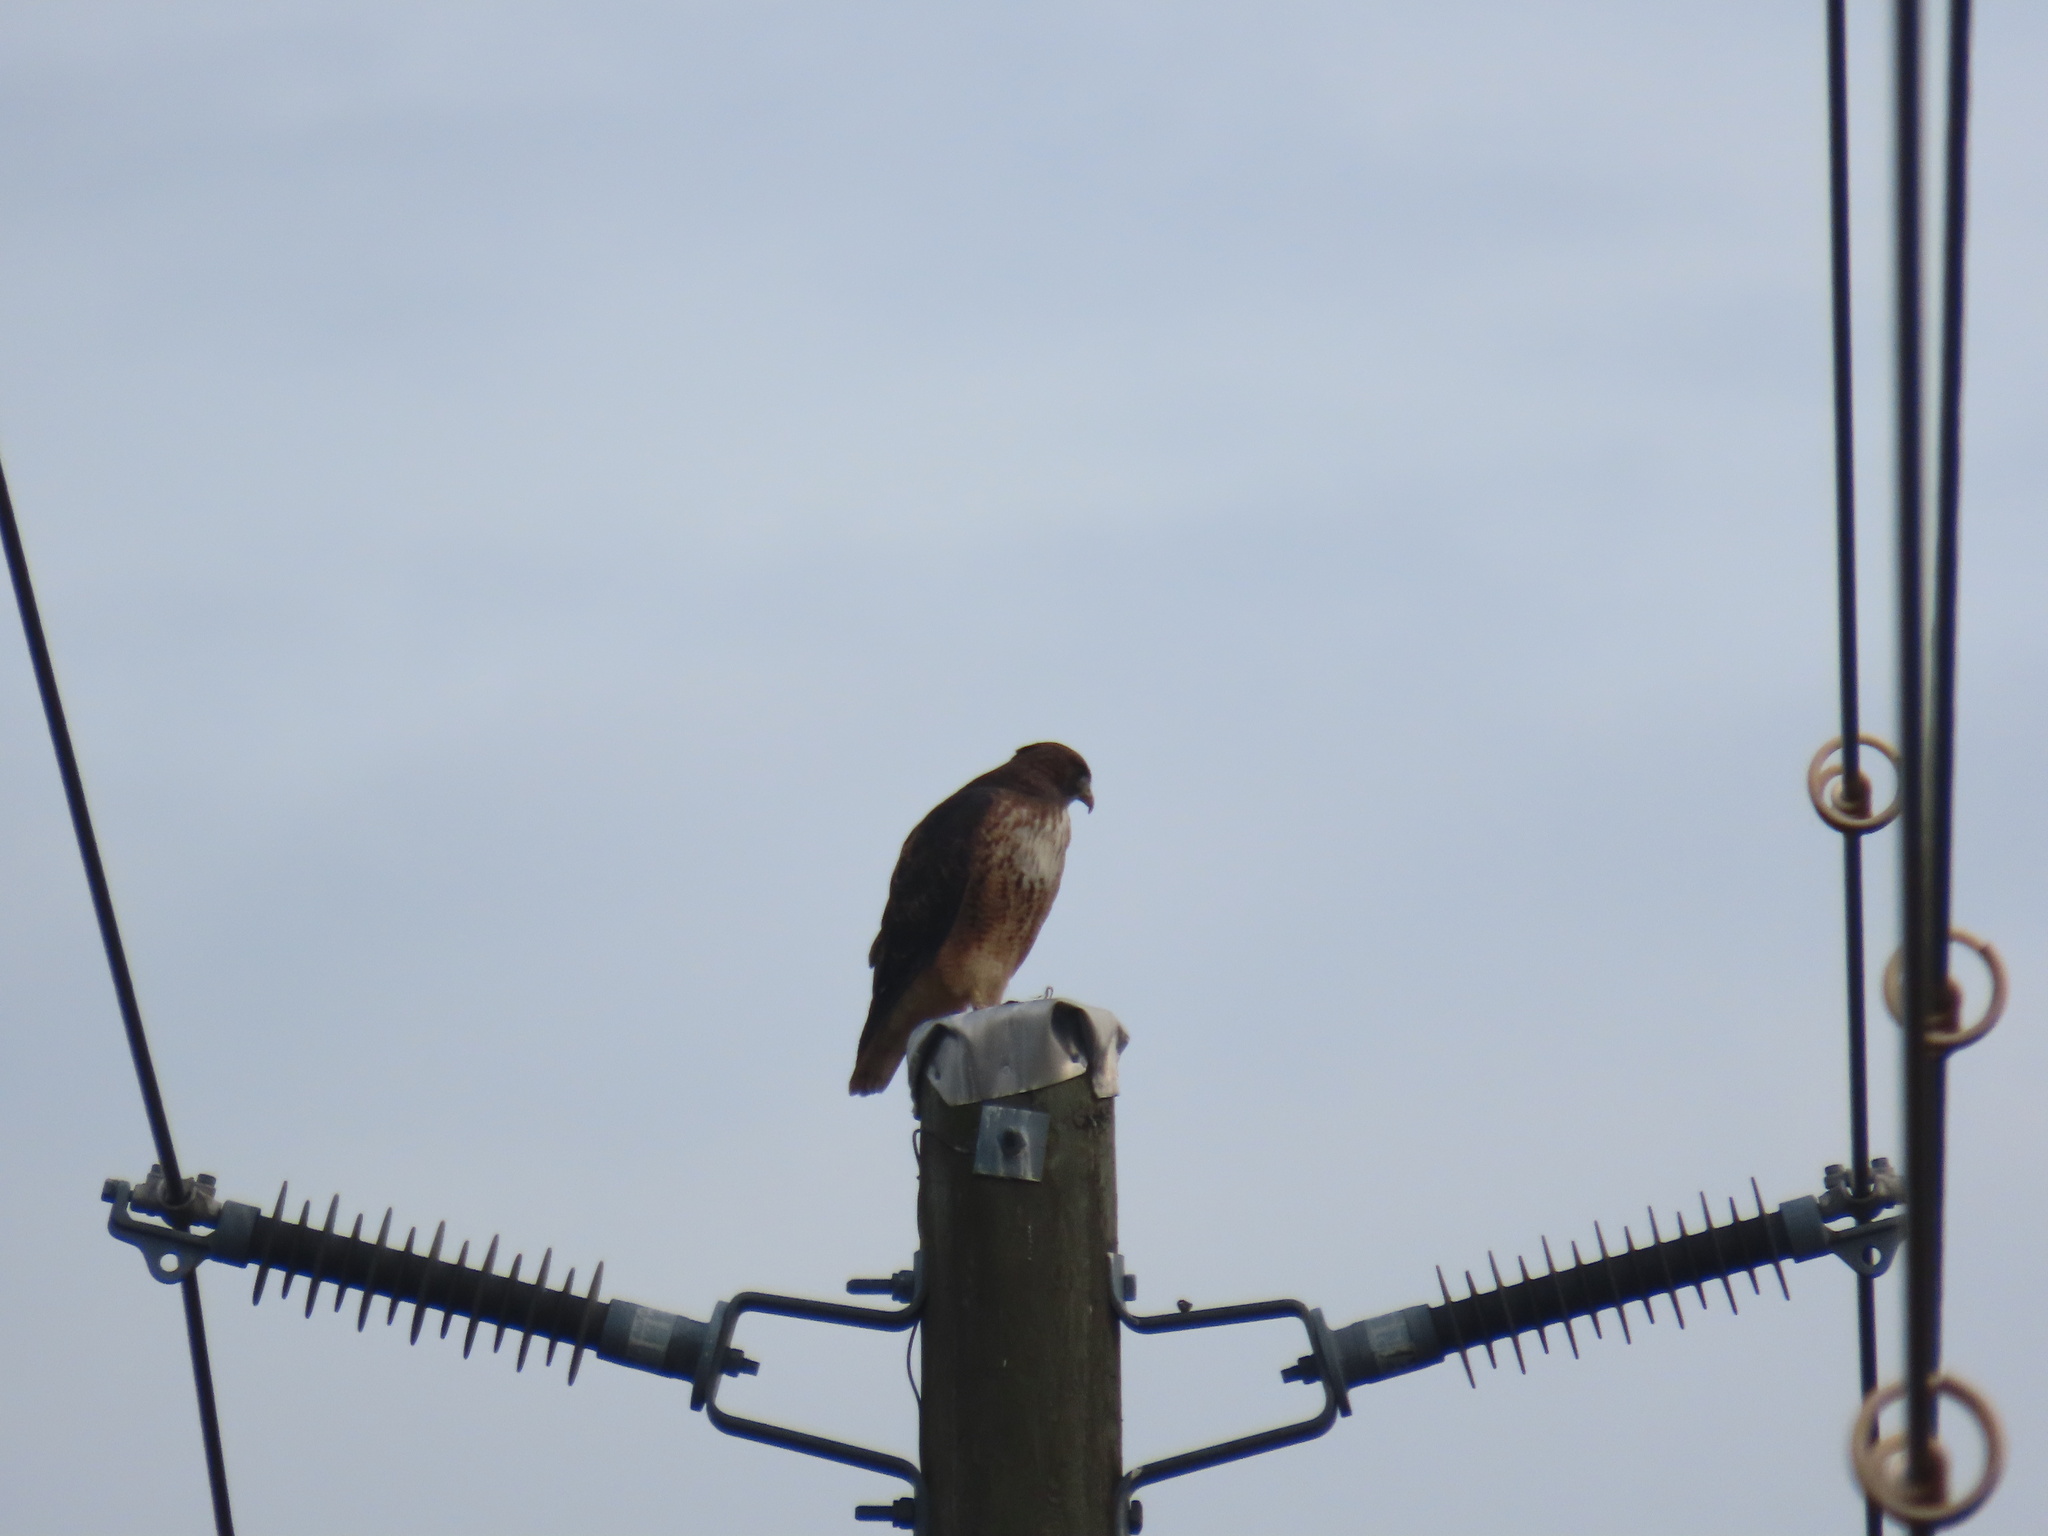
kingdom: Animalia
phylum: Chordata
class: Aves
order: Accipitriformes
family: Accipitridae
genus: Buteo
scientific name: Buteo jamaicensis
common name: Red-tailed hawk
